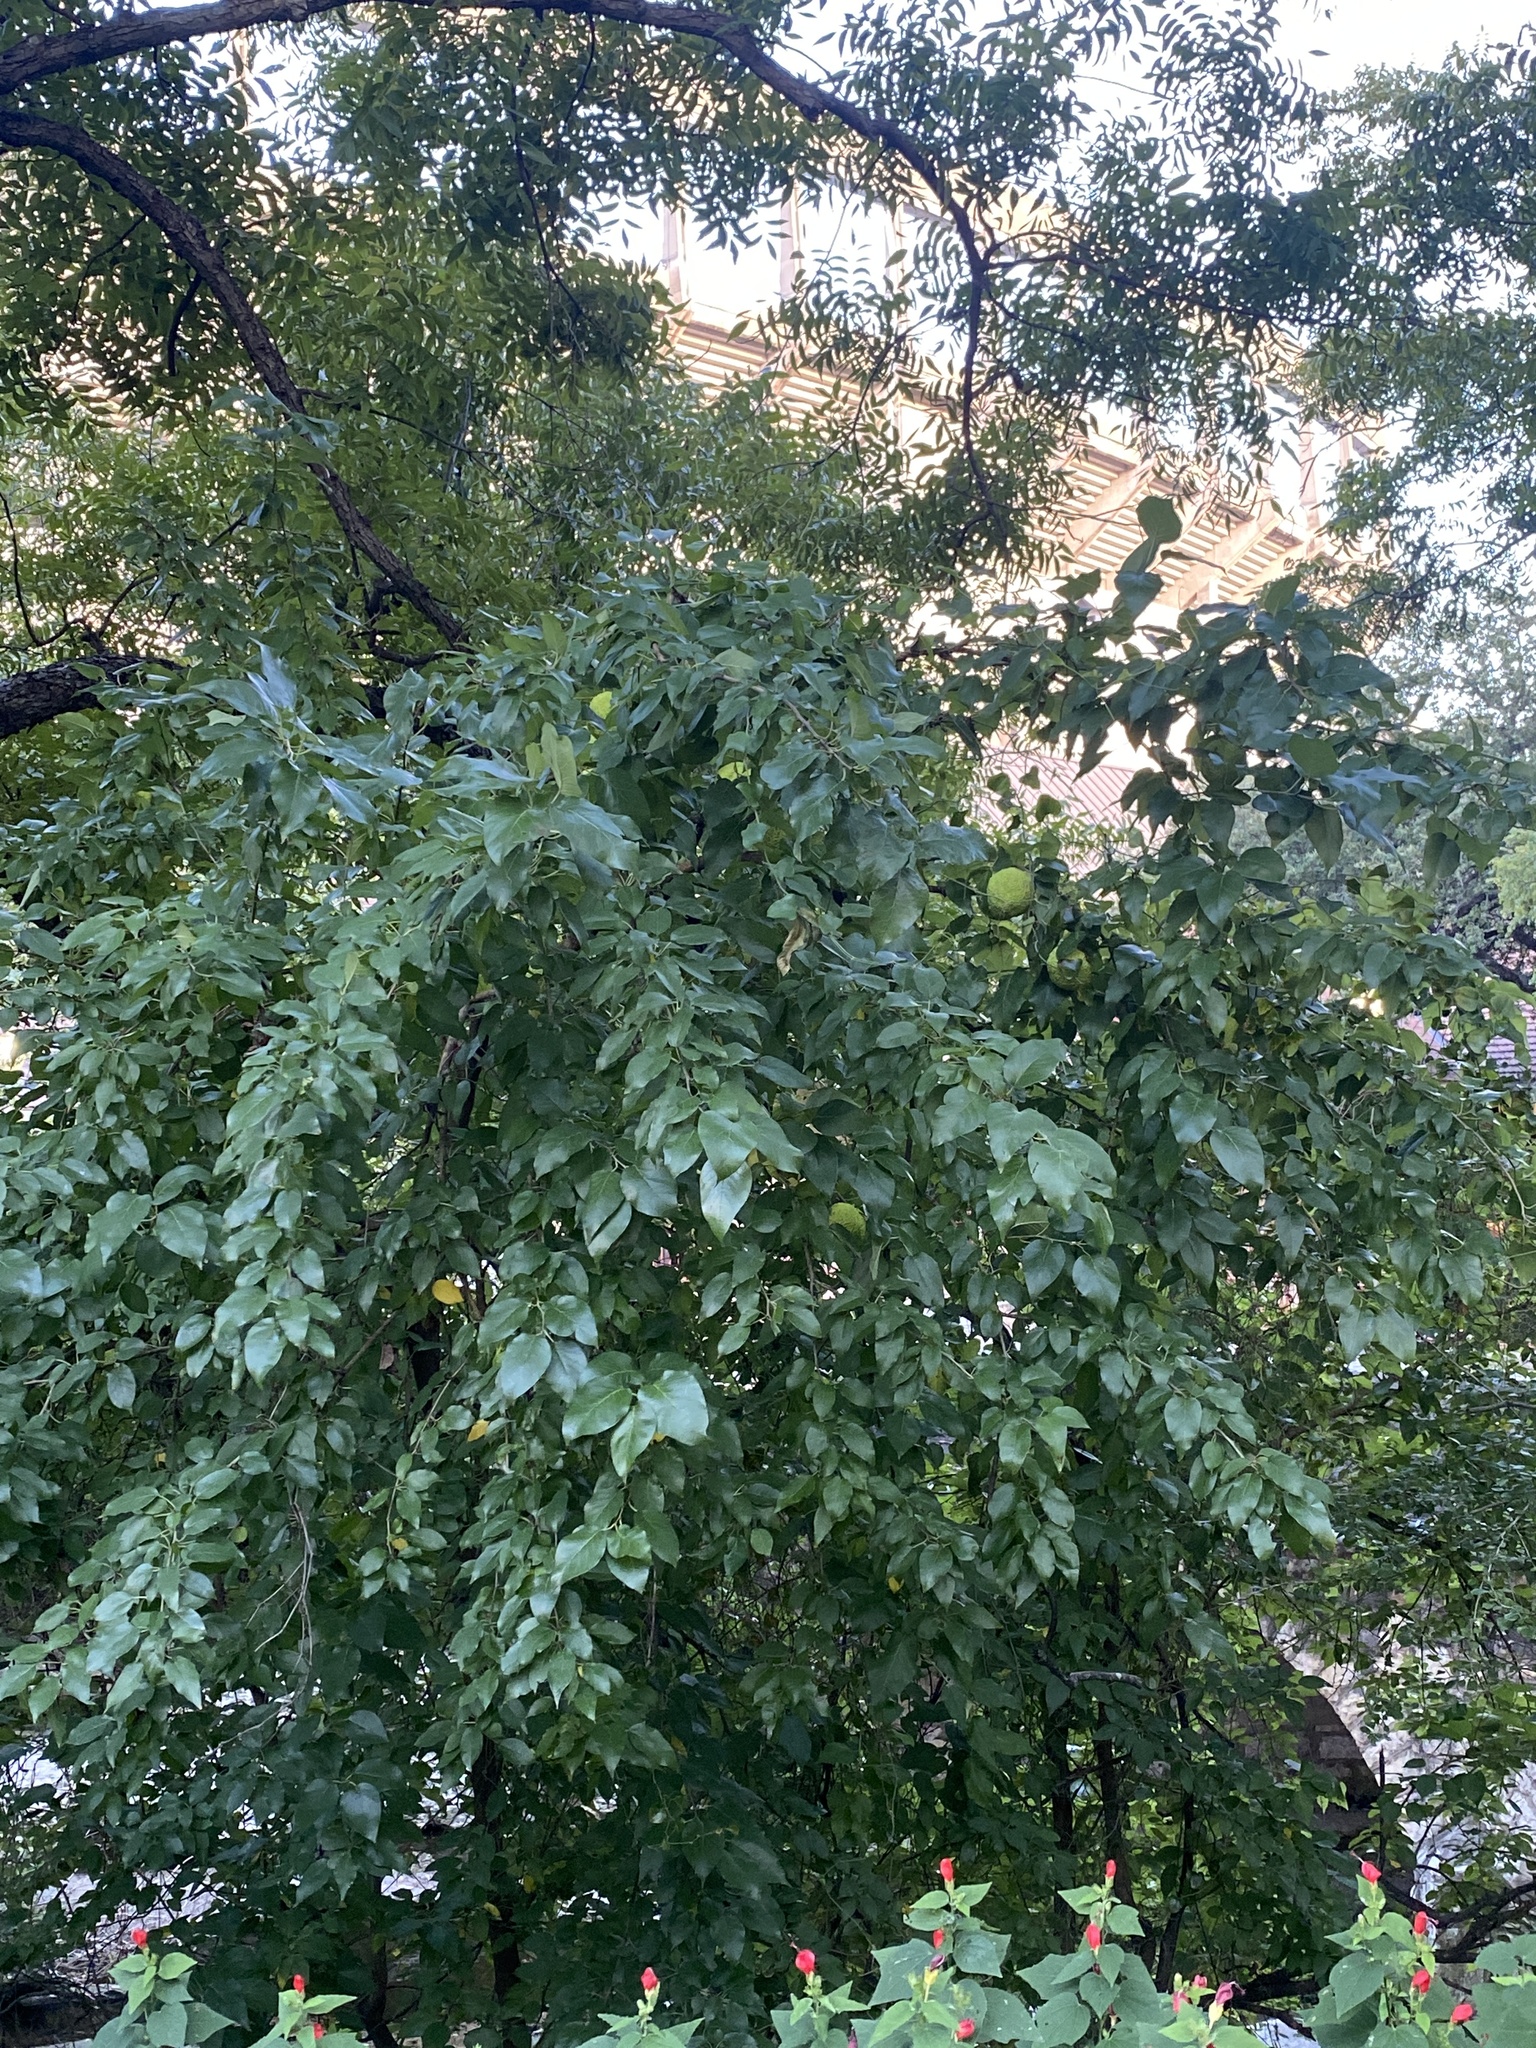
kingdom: Plantae
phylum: Tracheophyta
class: Magnoliopsida
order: Rosales
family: Moraceae
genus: Maclura
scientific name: Maclura pomifera
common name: Osage-orange
